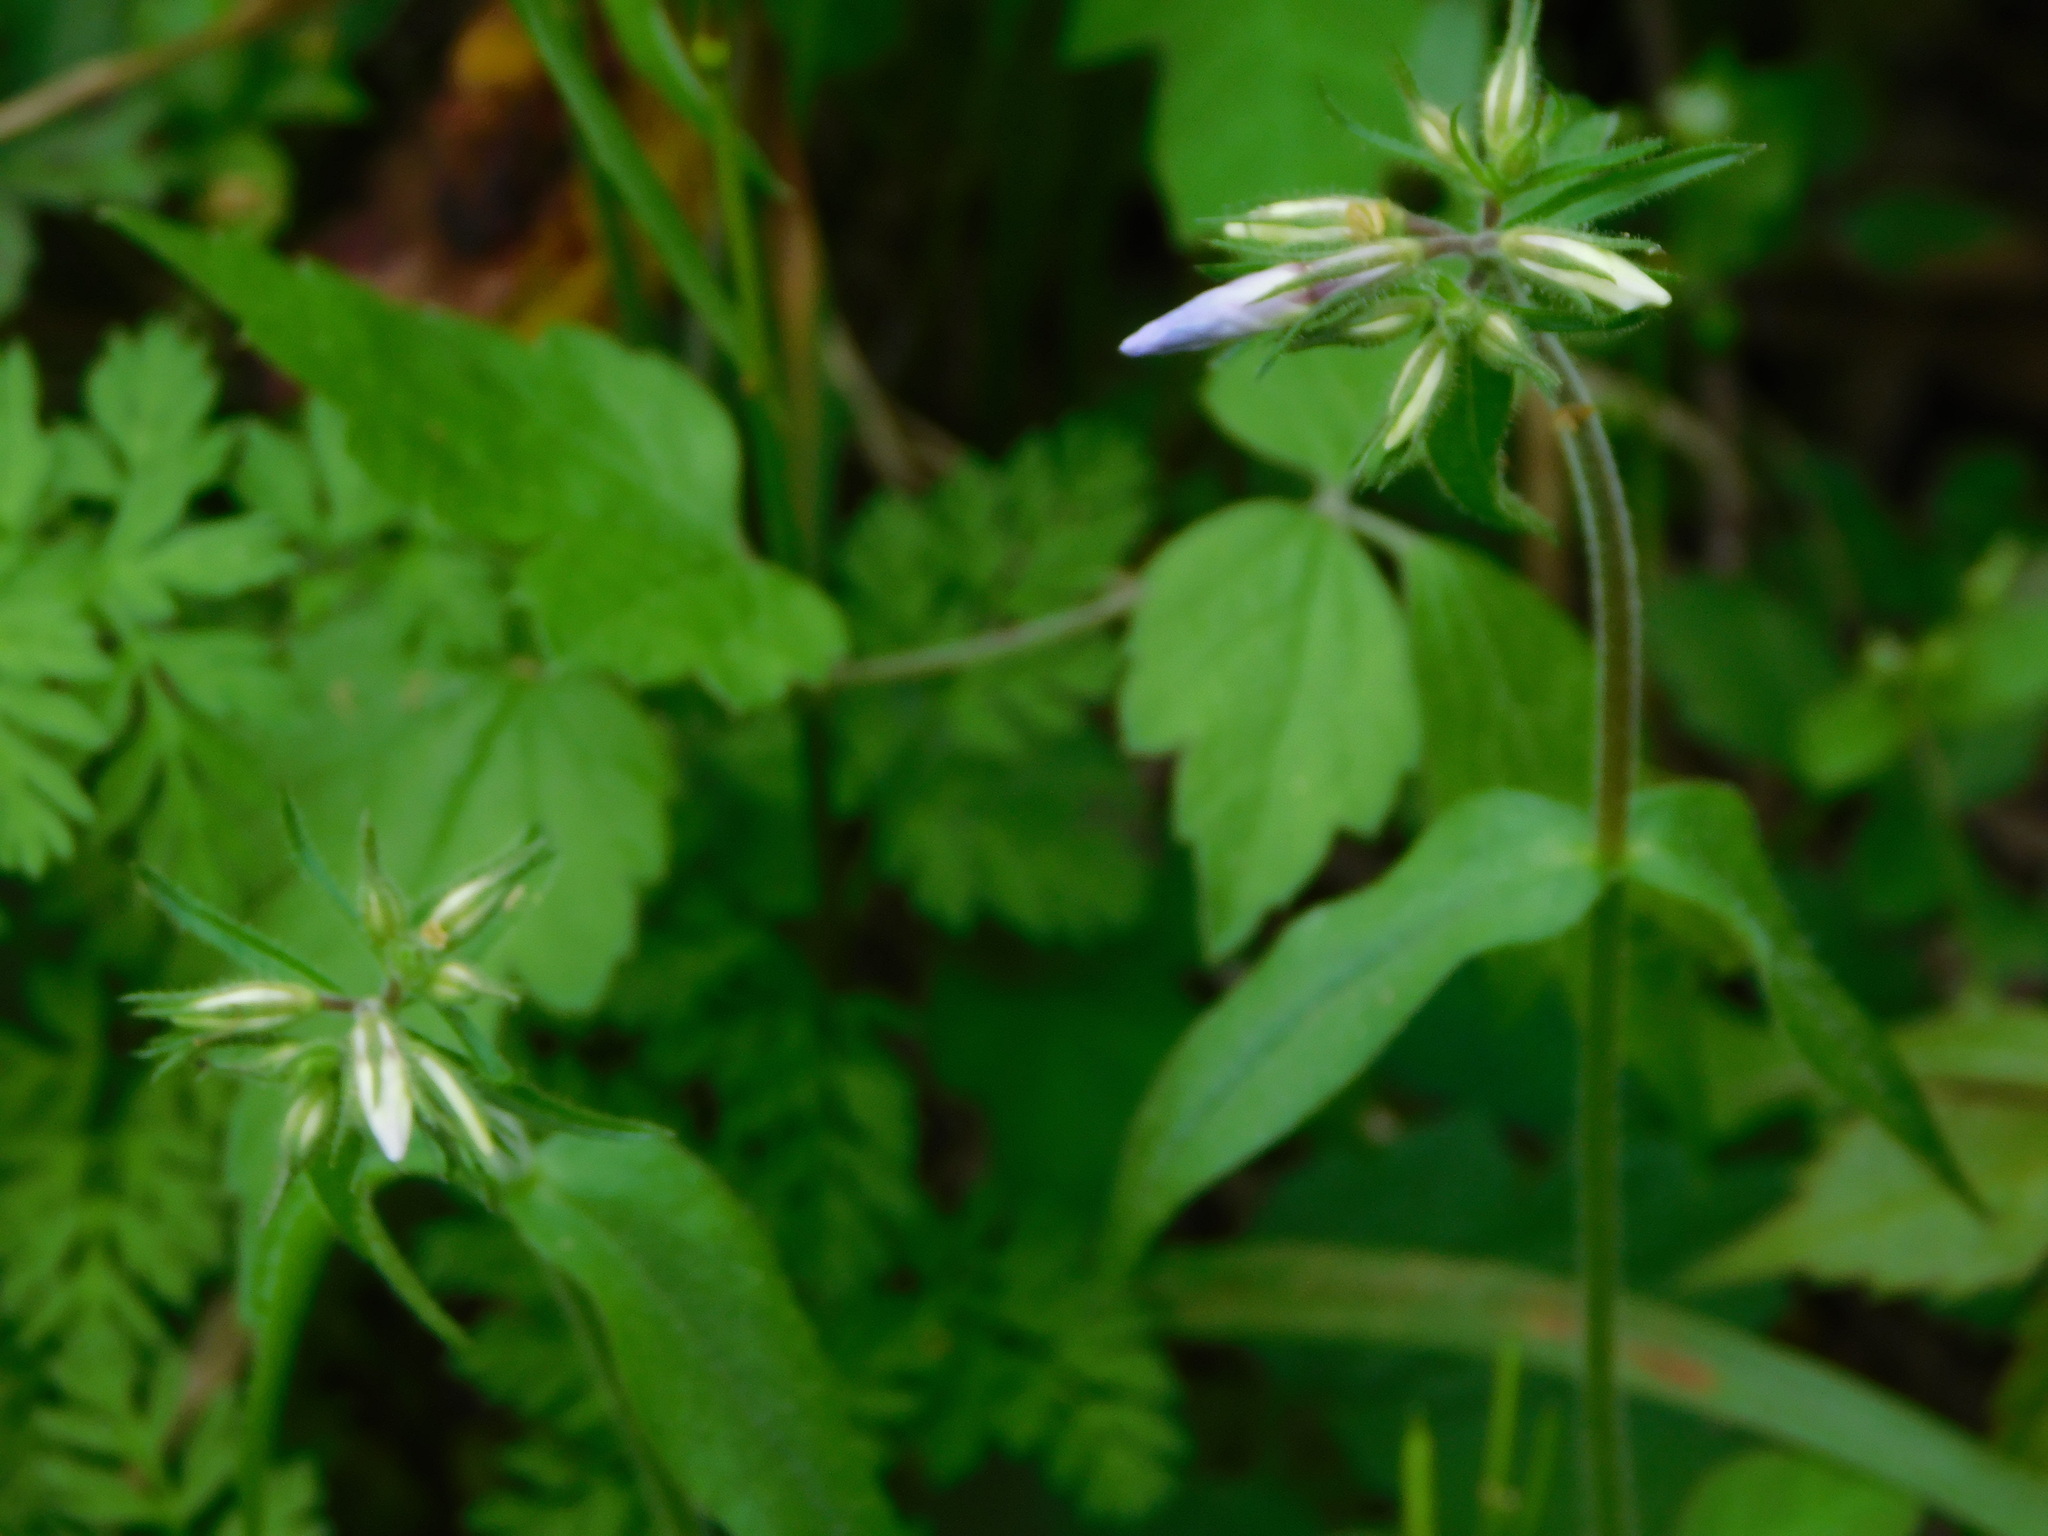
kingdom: Plantae
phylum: Tracheophyta
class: Magnoliopsida
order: Ericales
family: Polemoniaceae
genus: Phlox
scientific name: Phlox divaricata
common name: Blue phlox
